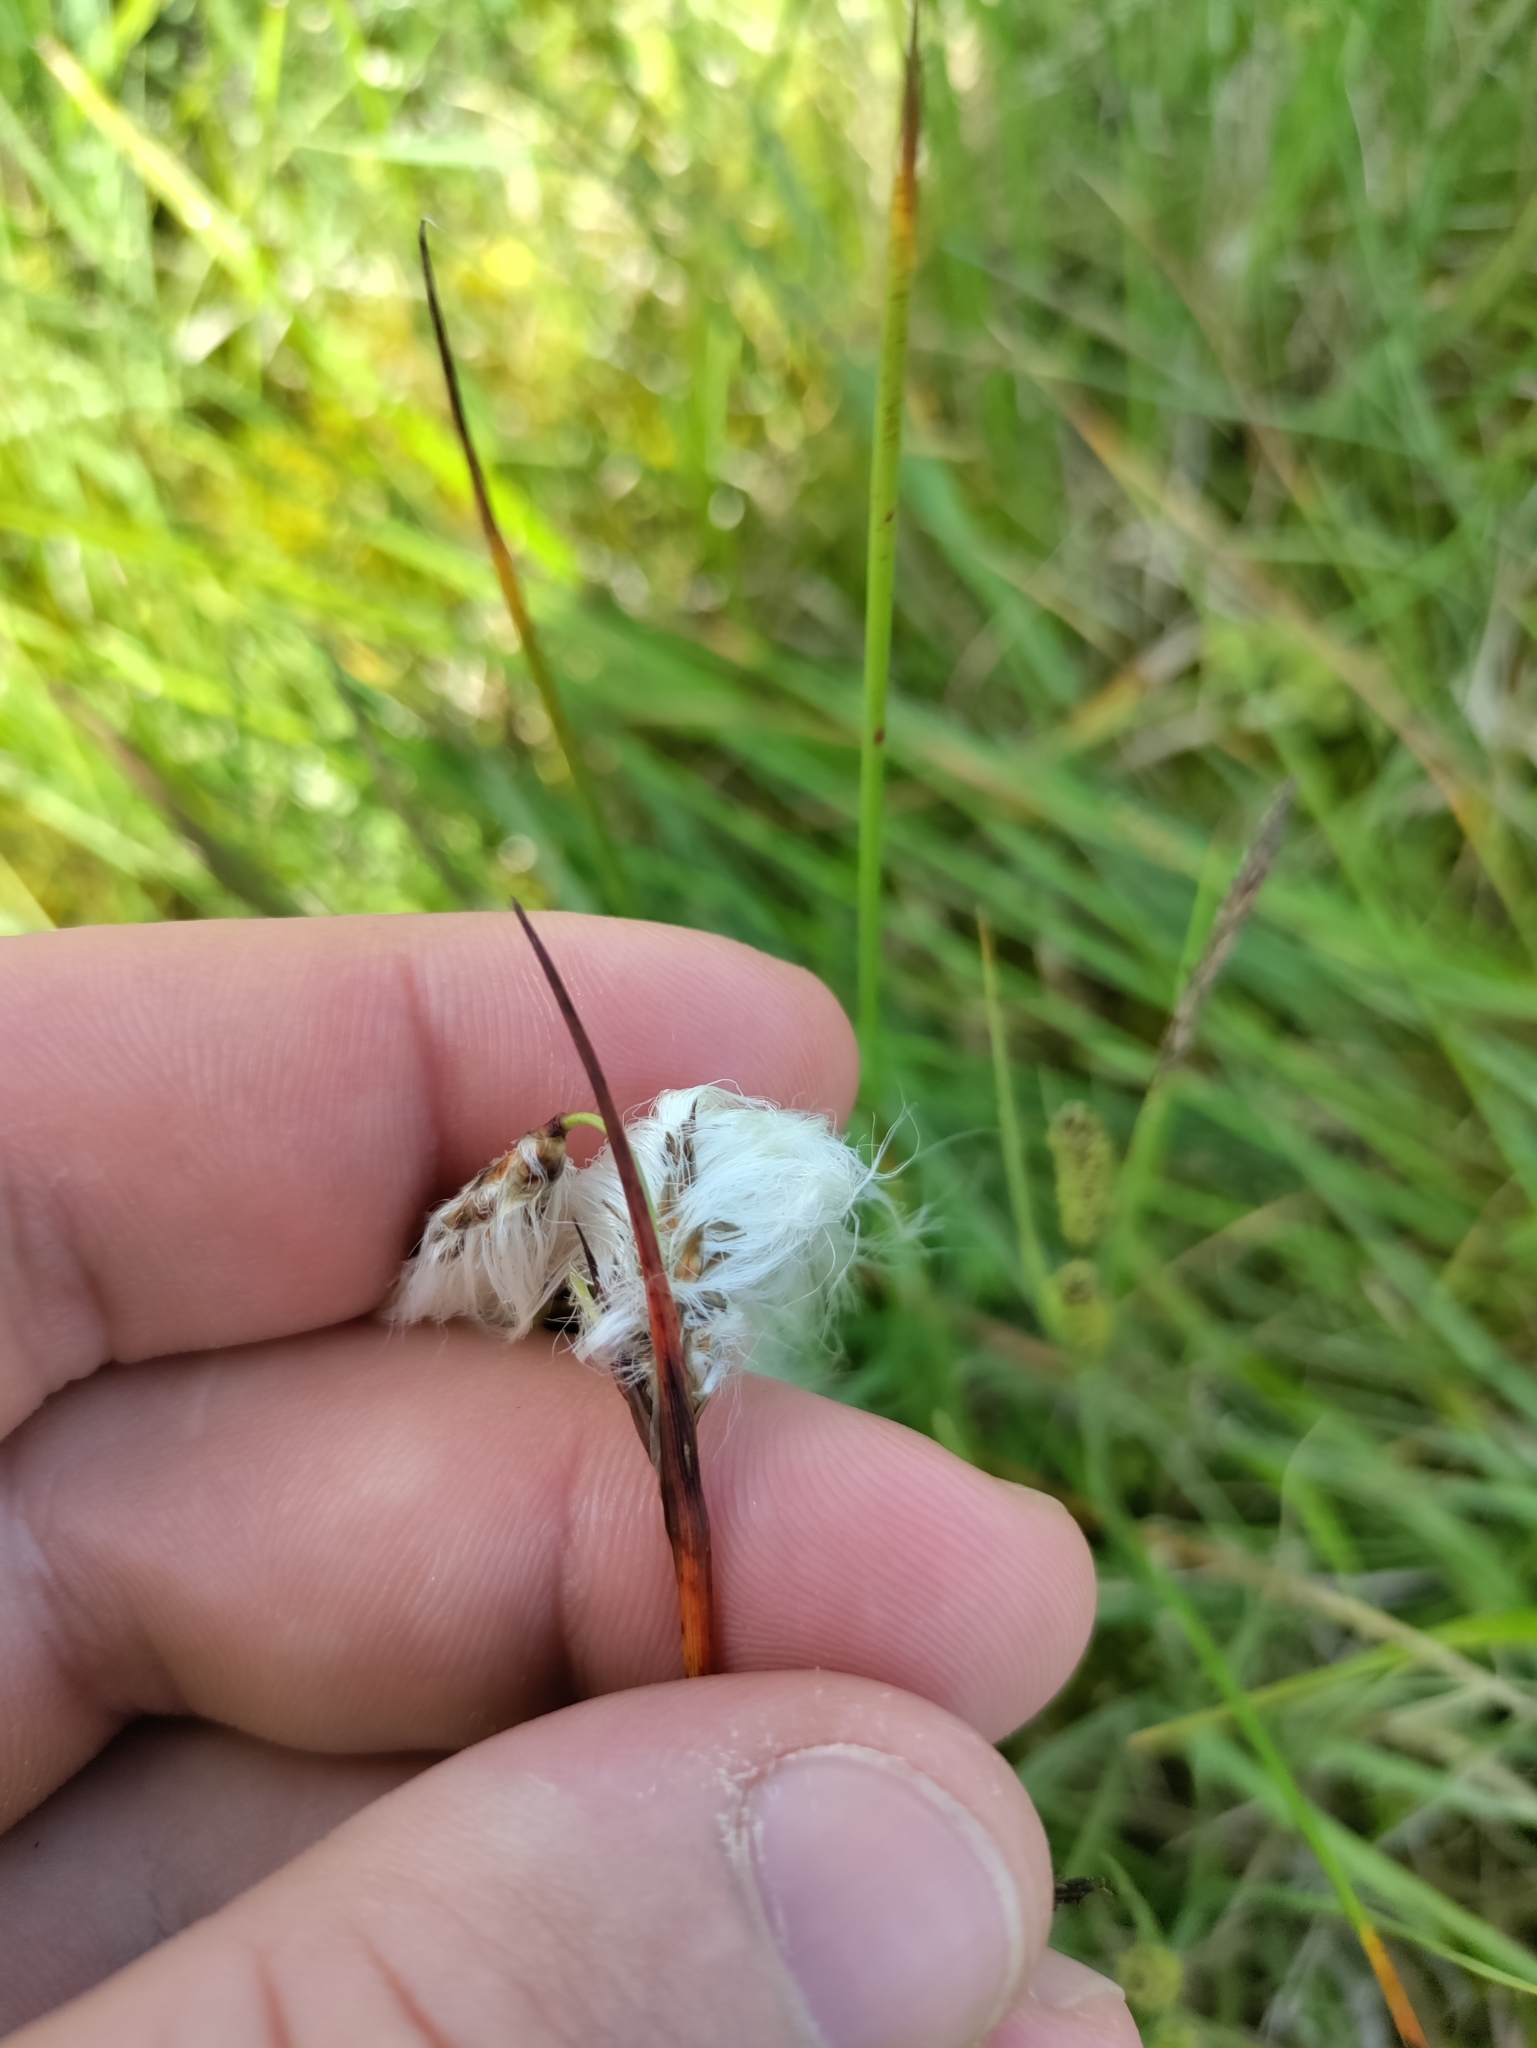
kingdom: Plantae
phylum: Tracheophyta
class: Liliopsida
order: Poales
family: Cyperaceae
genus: Eriophorum
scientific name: Eriophorum angustifolium
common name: Common cottongrass
